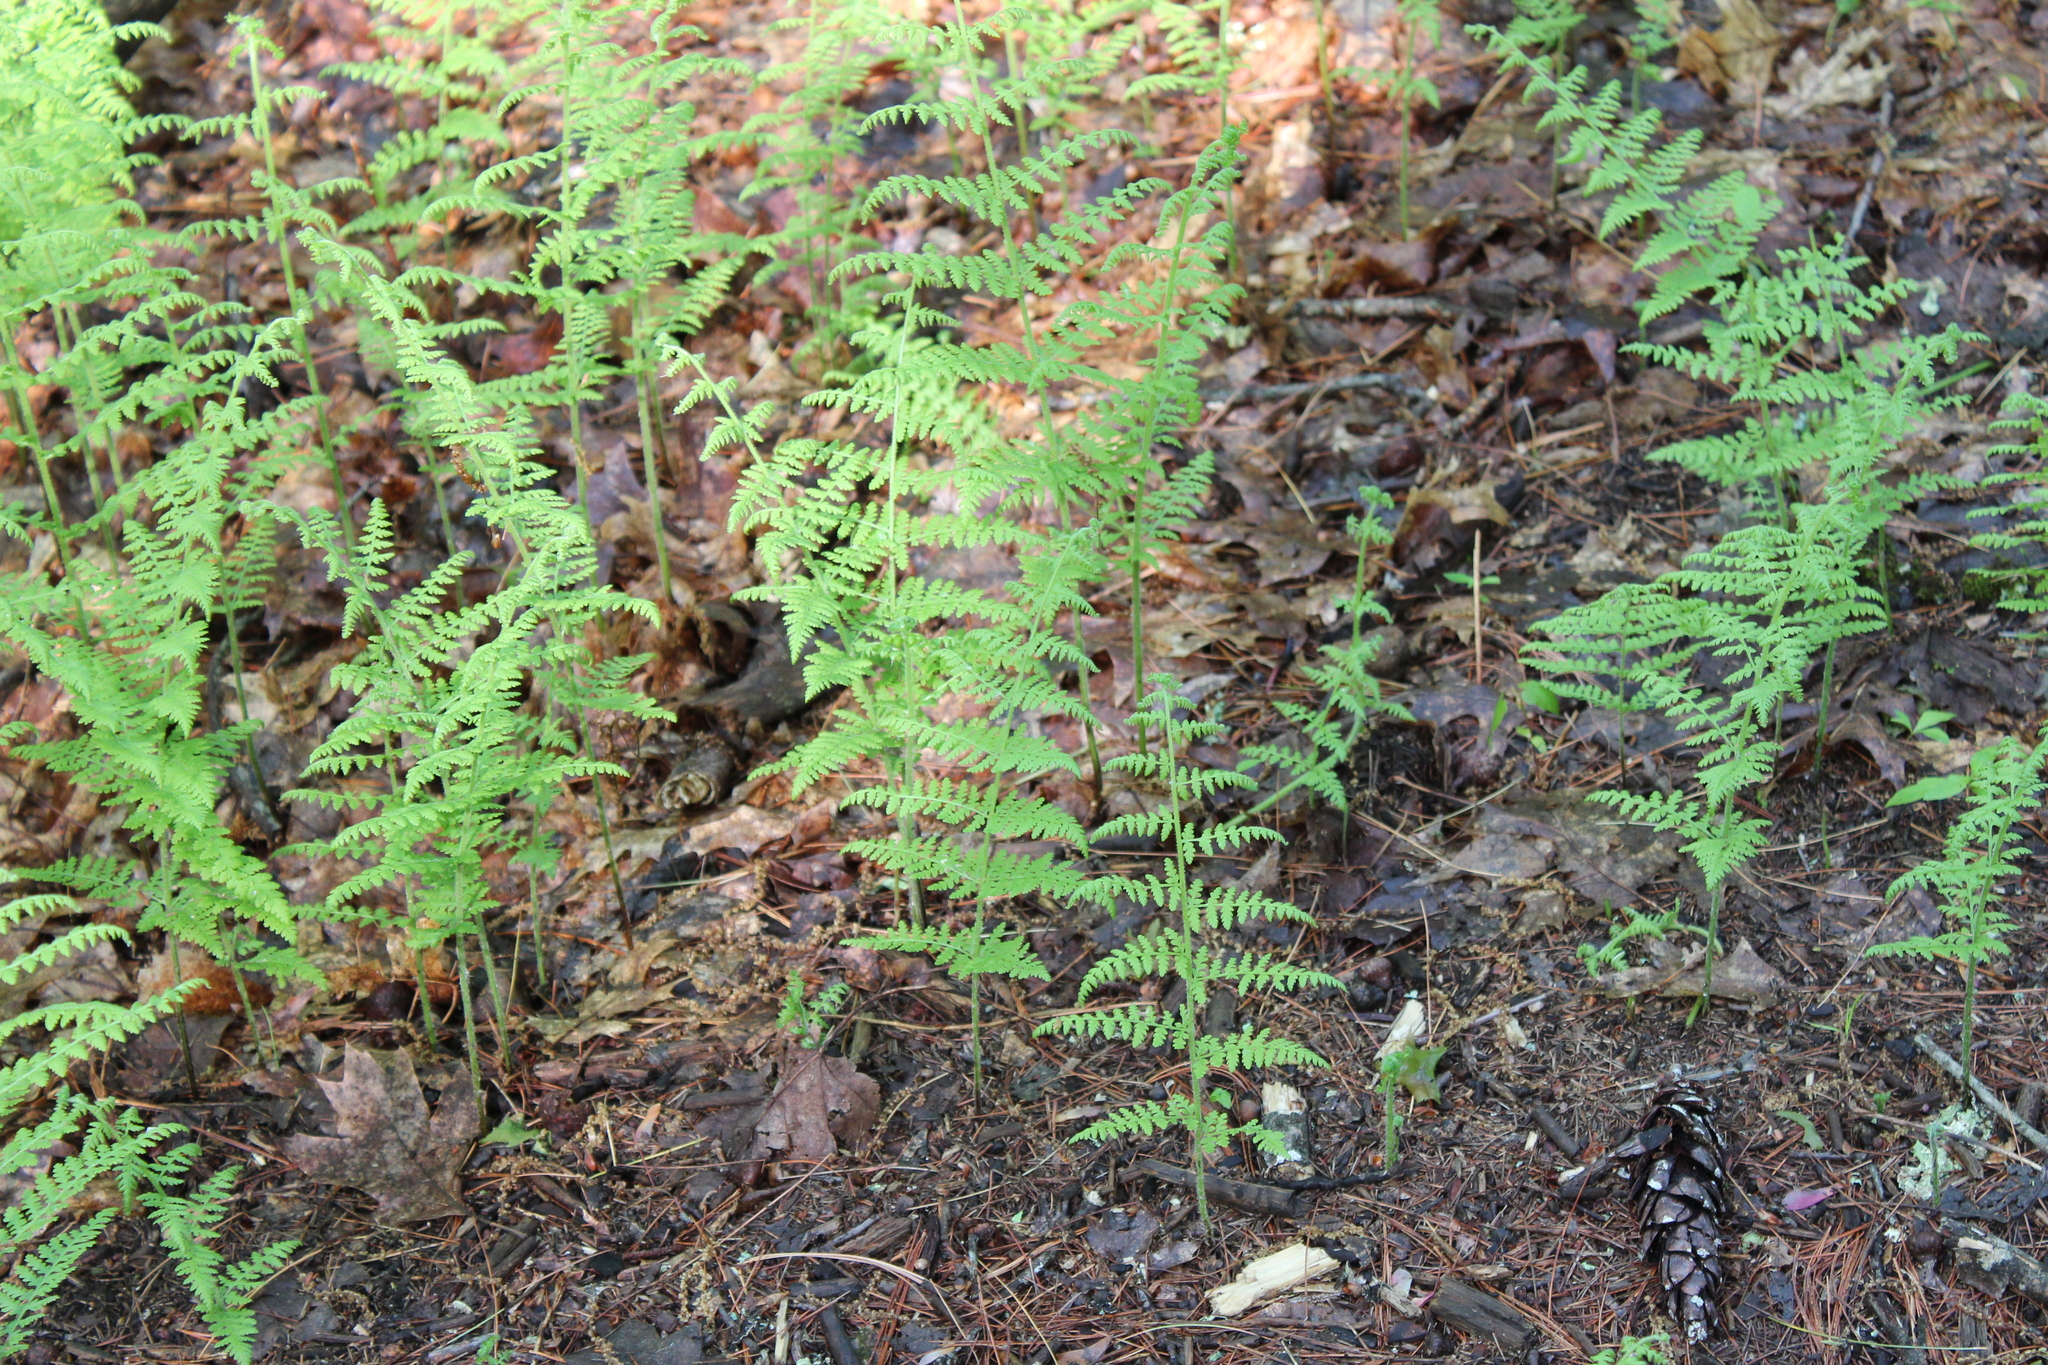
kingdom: Plantae
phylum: Tracheophyta
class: Polypodiopsida
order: Polypodiales
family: Dennstaedtiaceae
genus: Sitobolium
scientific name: Sitobolium punctilobum
